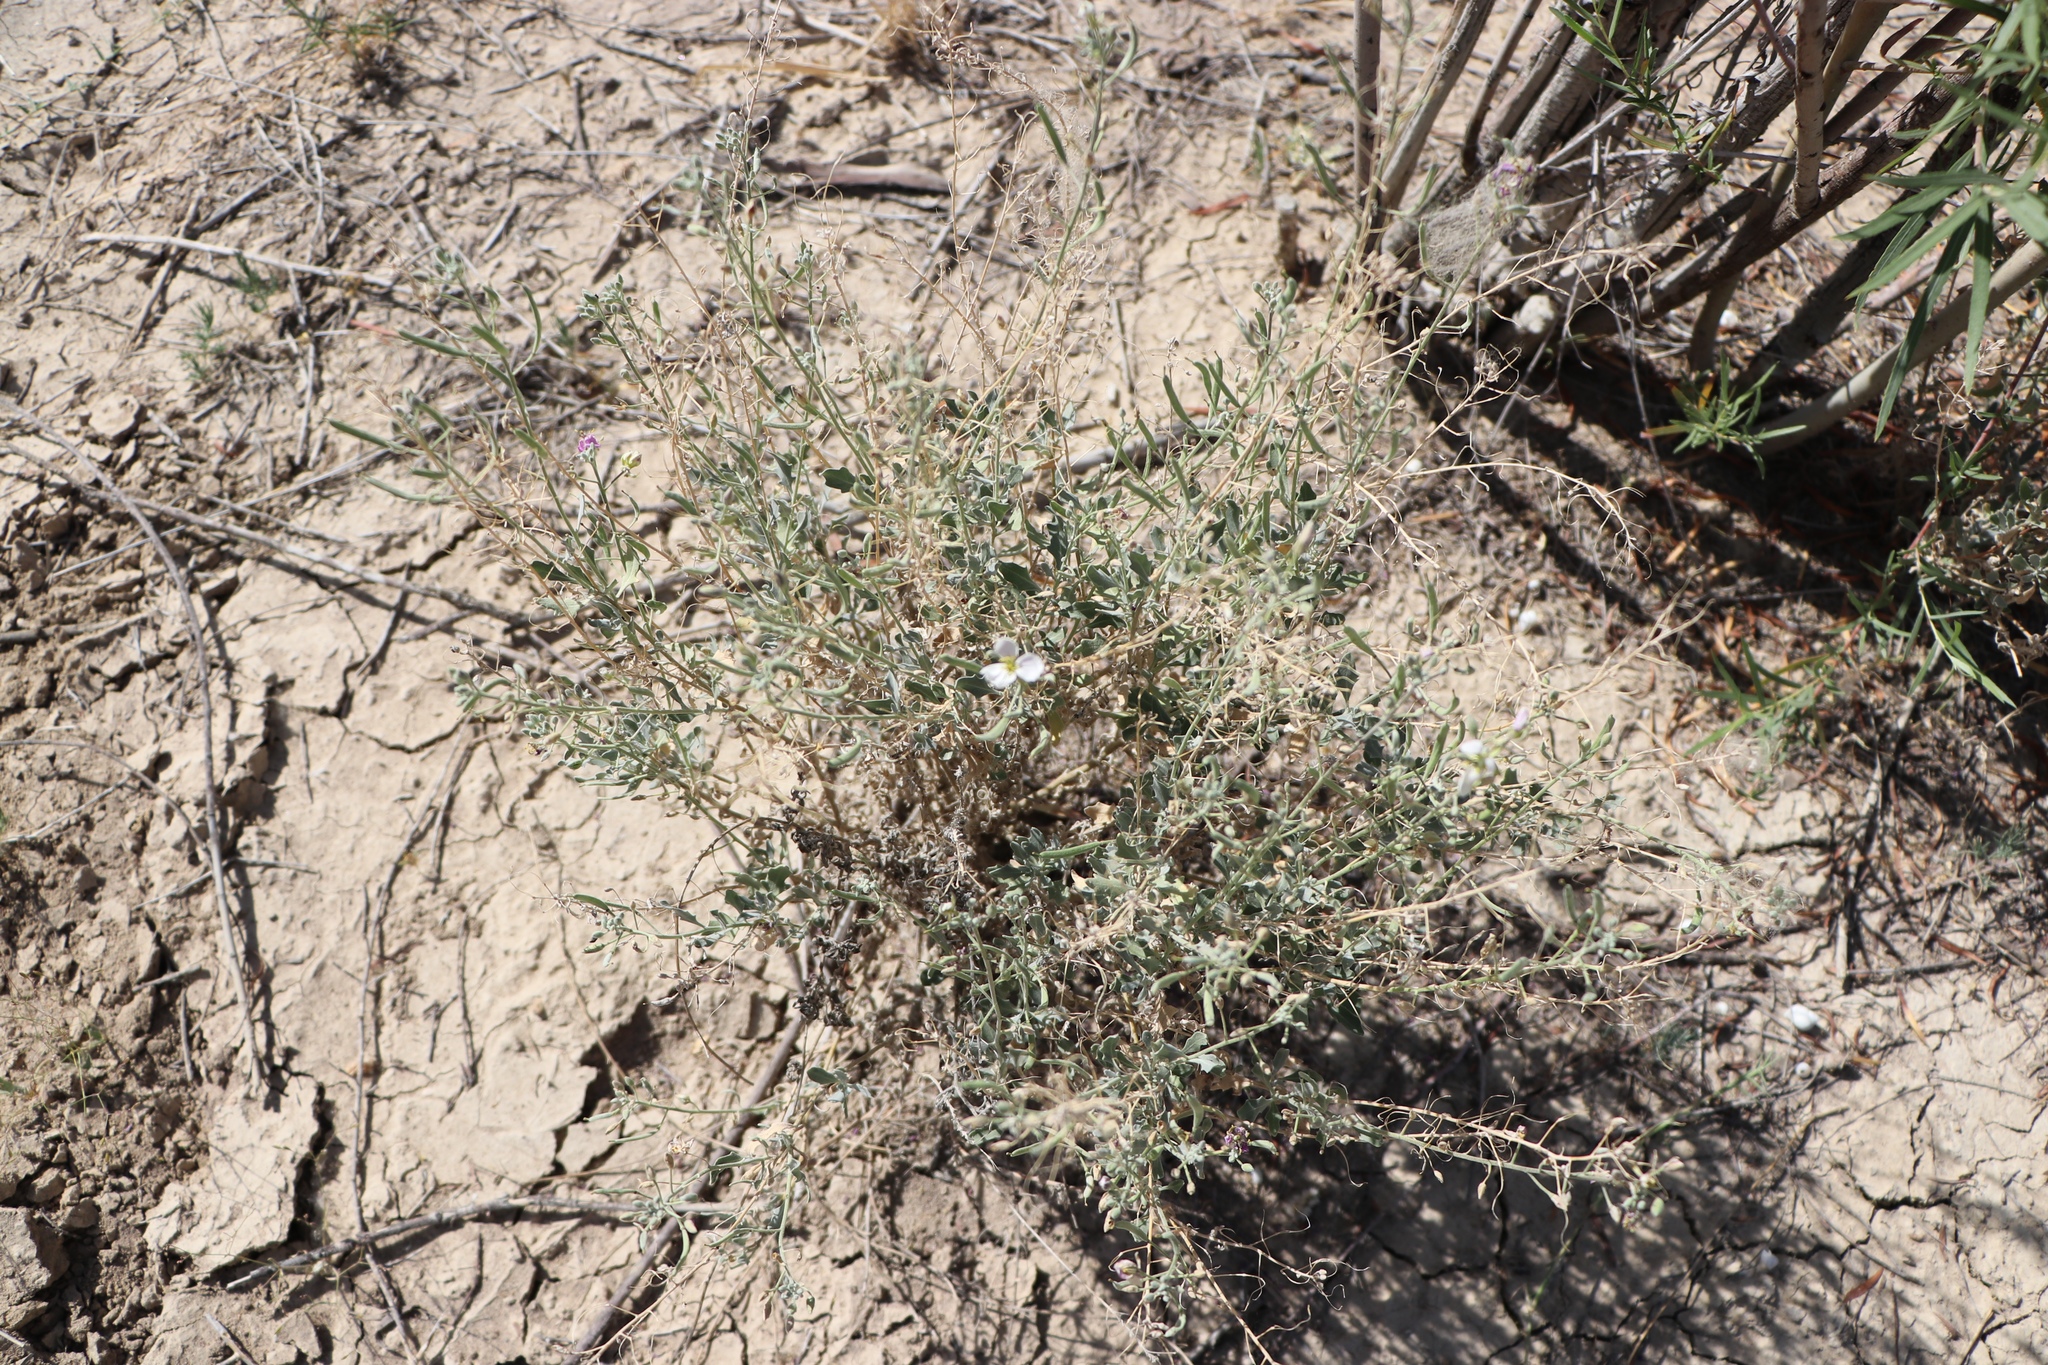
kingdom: Plantae
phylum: Tracheophyta
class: Magnoliopsida
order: Brassicales
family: Brassicaceae
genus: Nerisyrenia
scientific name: Nerisyrenia camporum
